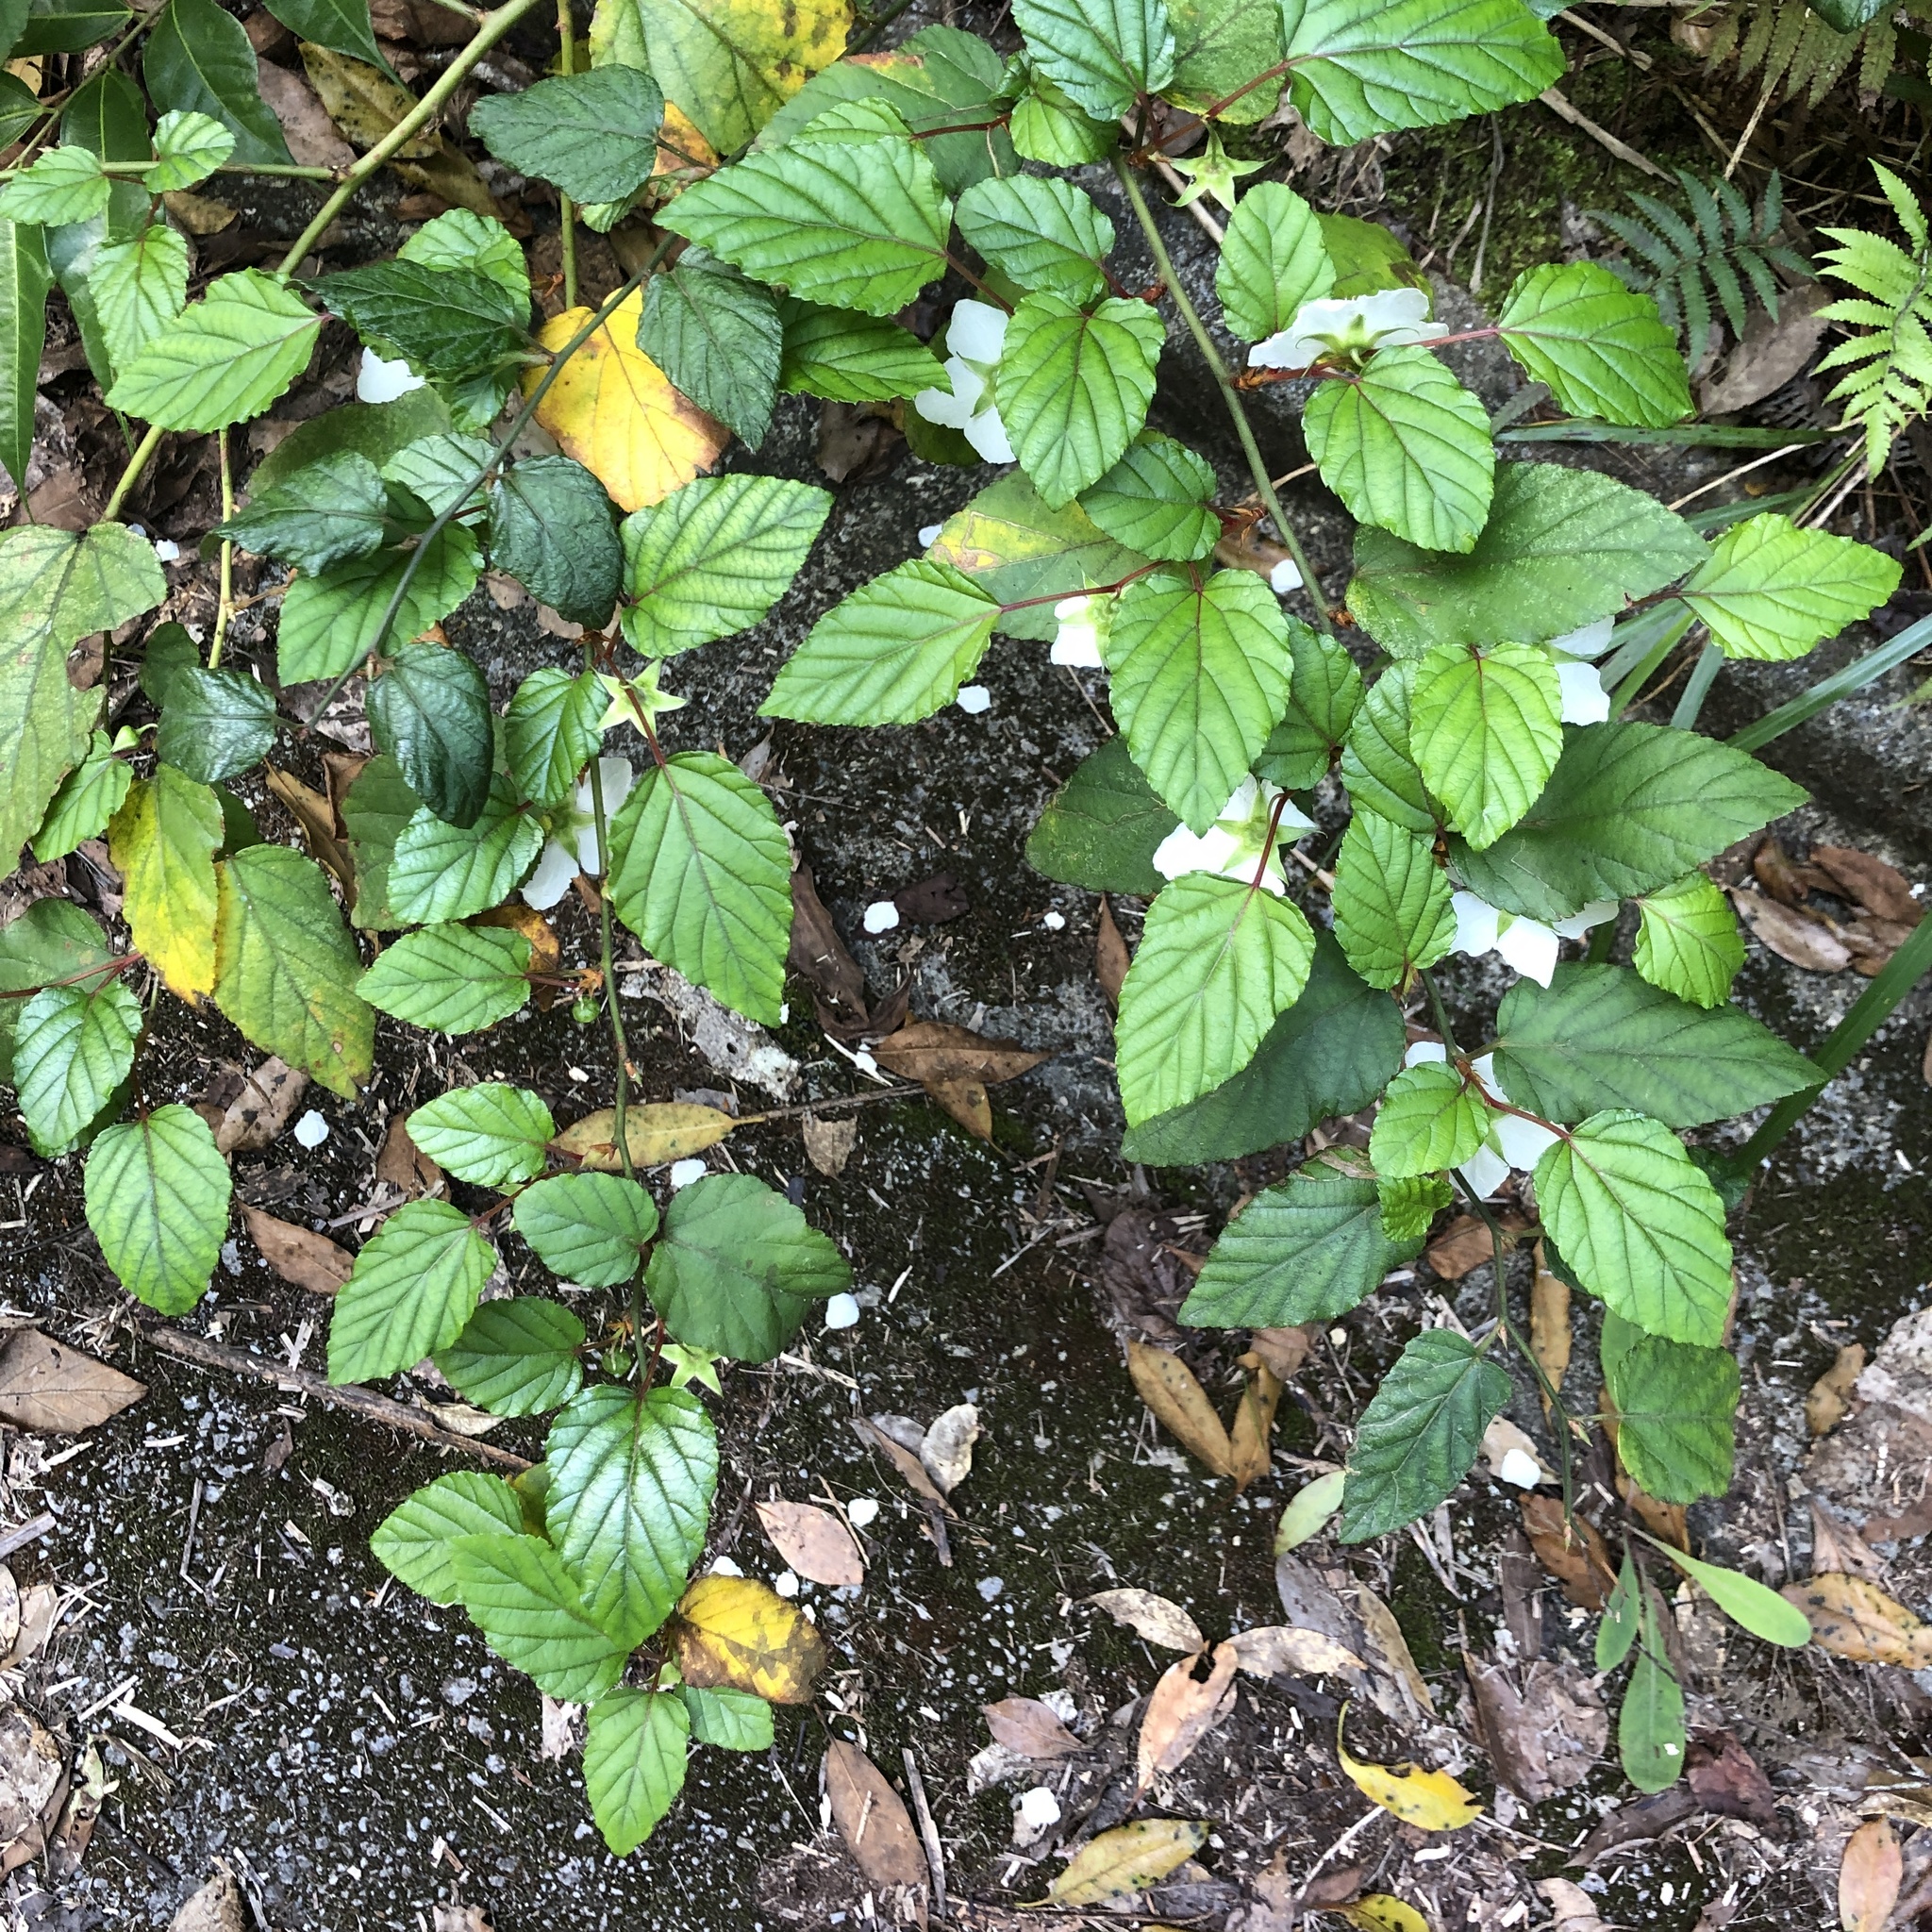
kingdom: Plantae
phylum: Tracheophyta
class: Magnoliopsida
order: Rosales
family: Rosaceae
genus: Rubus
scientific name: Rubus grayanus
